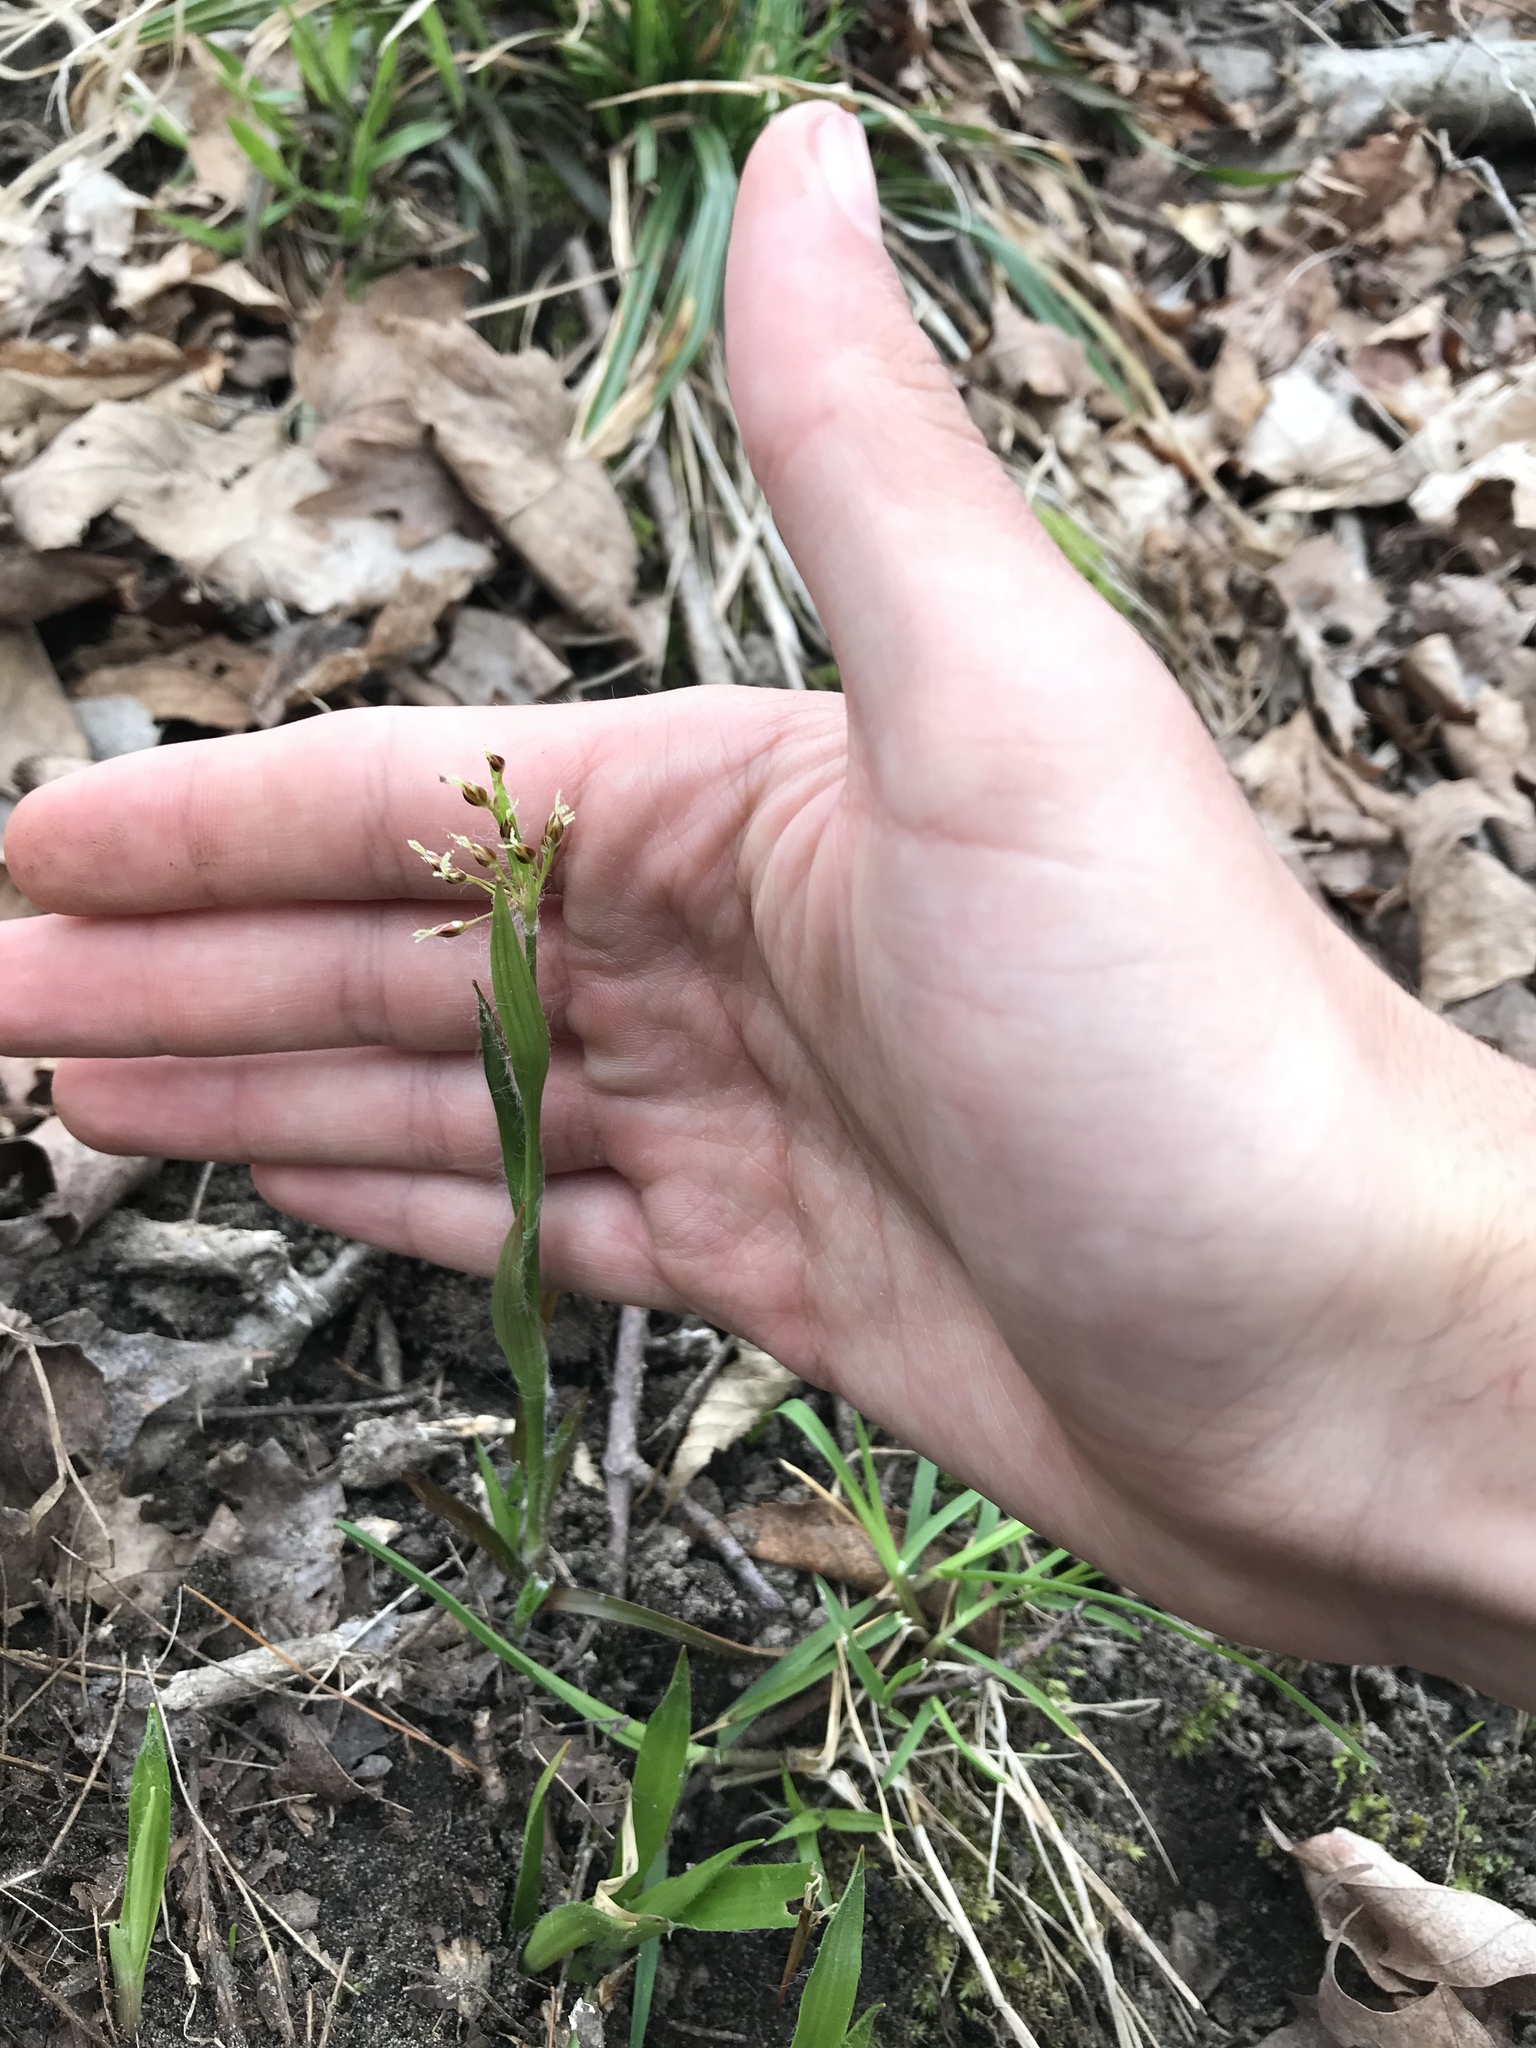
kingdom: Plantae
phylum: Tracheophyta
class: Liliopsida
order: Poales
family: Juncaceae
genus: Luzula
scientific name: Luzula acuminata
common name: Hairy woodrush
